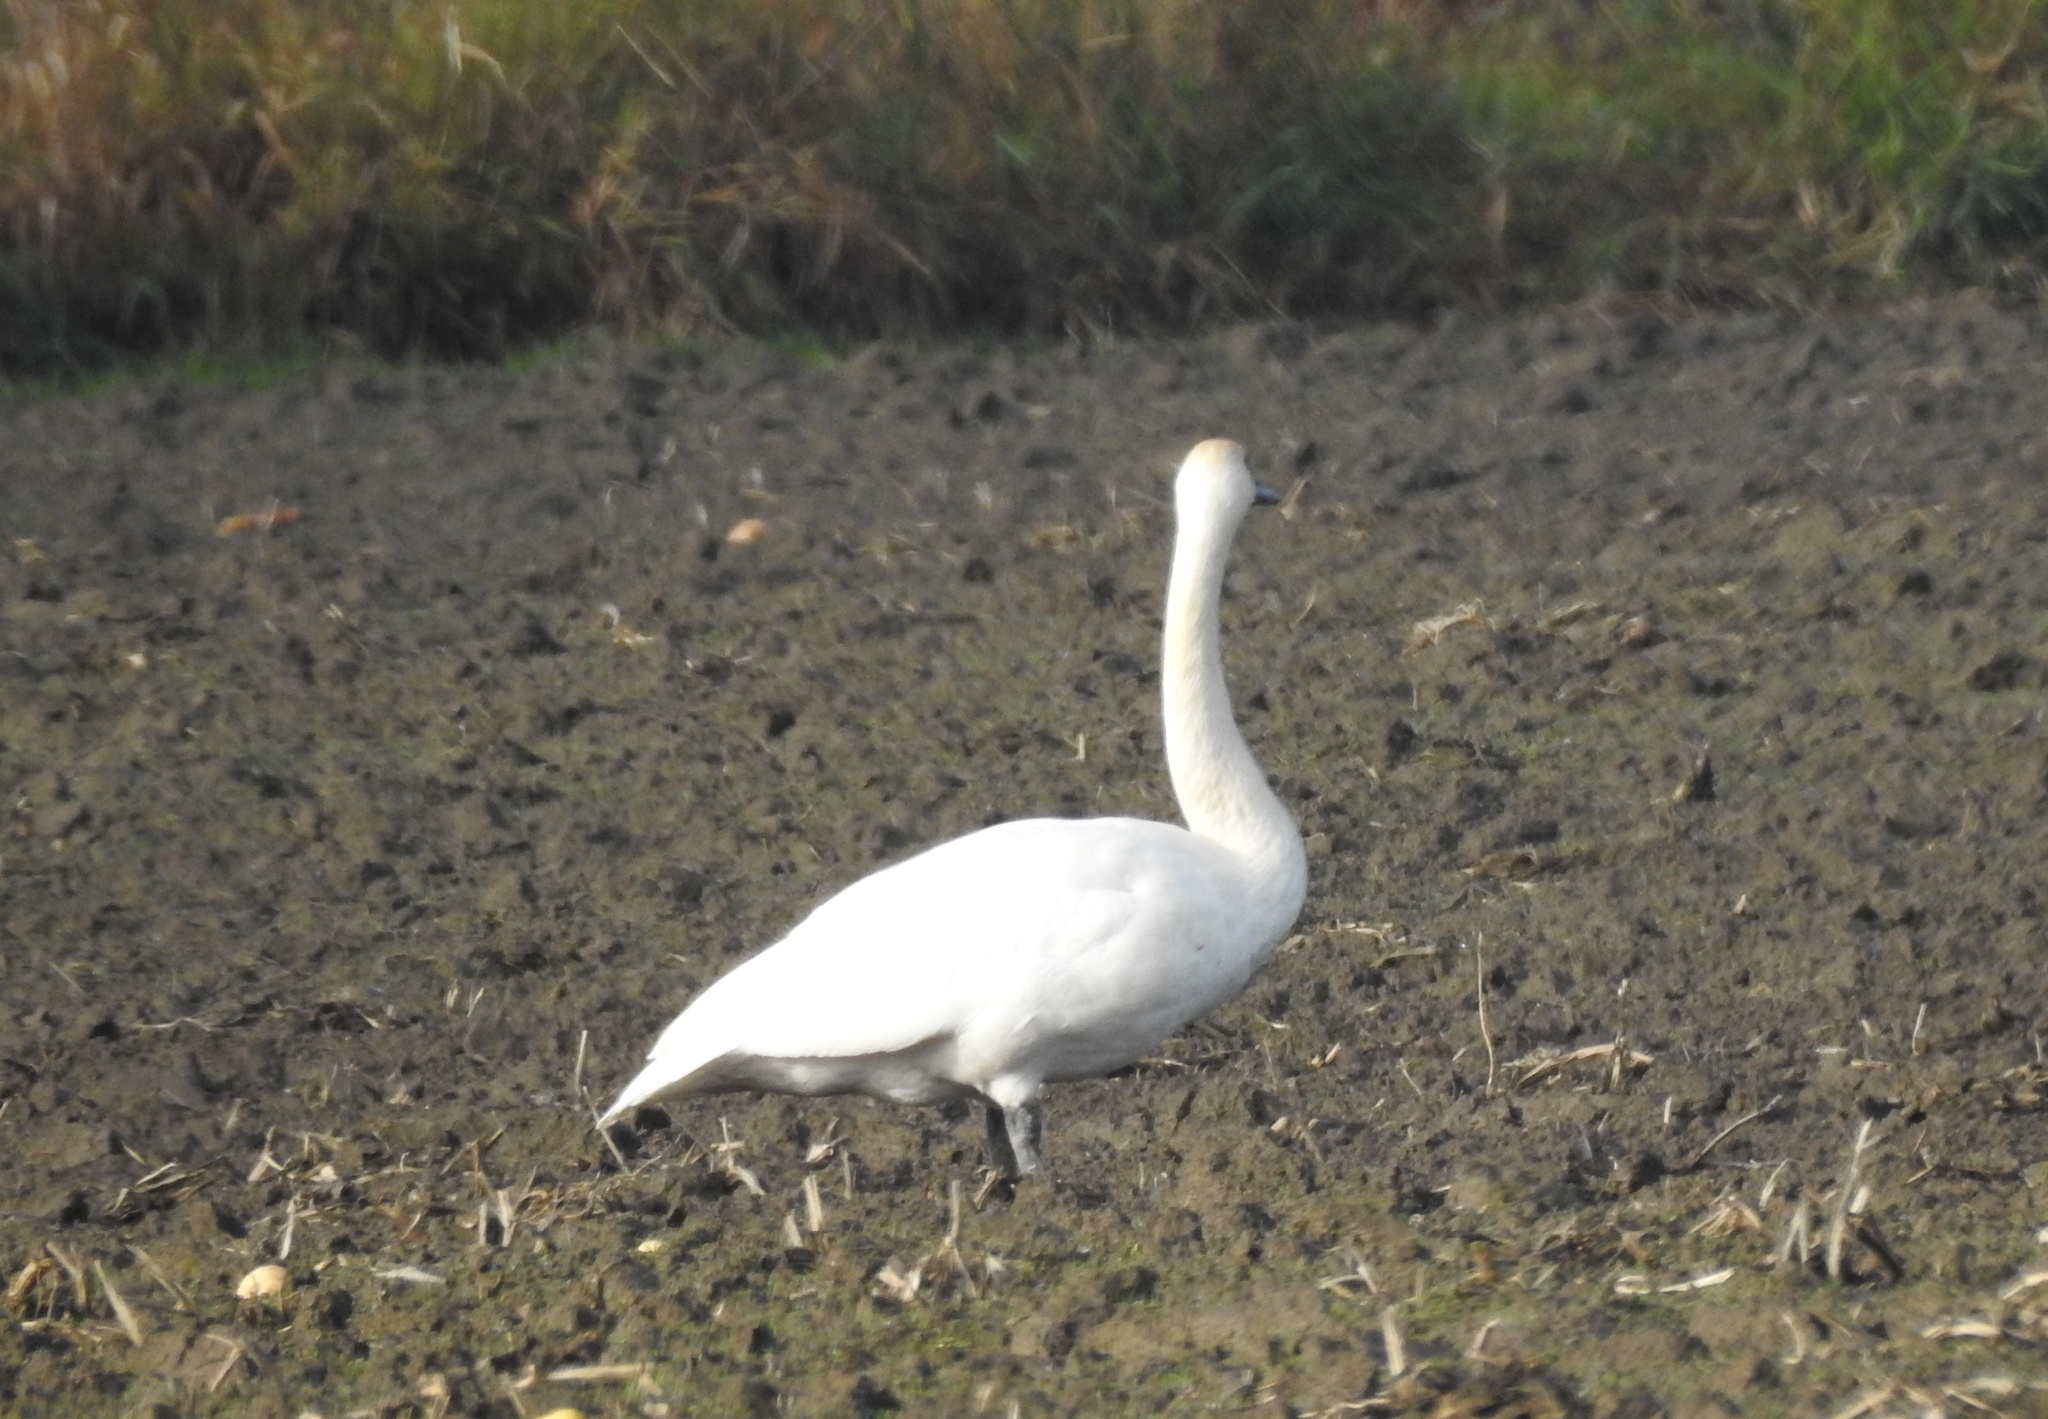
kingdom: Animalia
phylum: Chordata
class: Aves
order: Anseriformes
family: Anatidae
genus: Cygnus
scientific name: Cygnus buccinator
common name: Trumpeter swan
